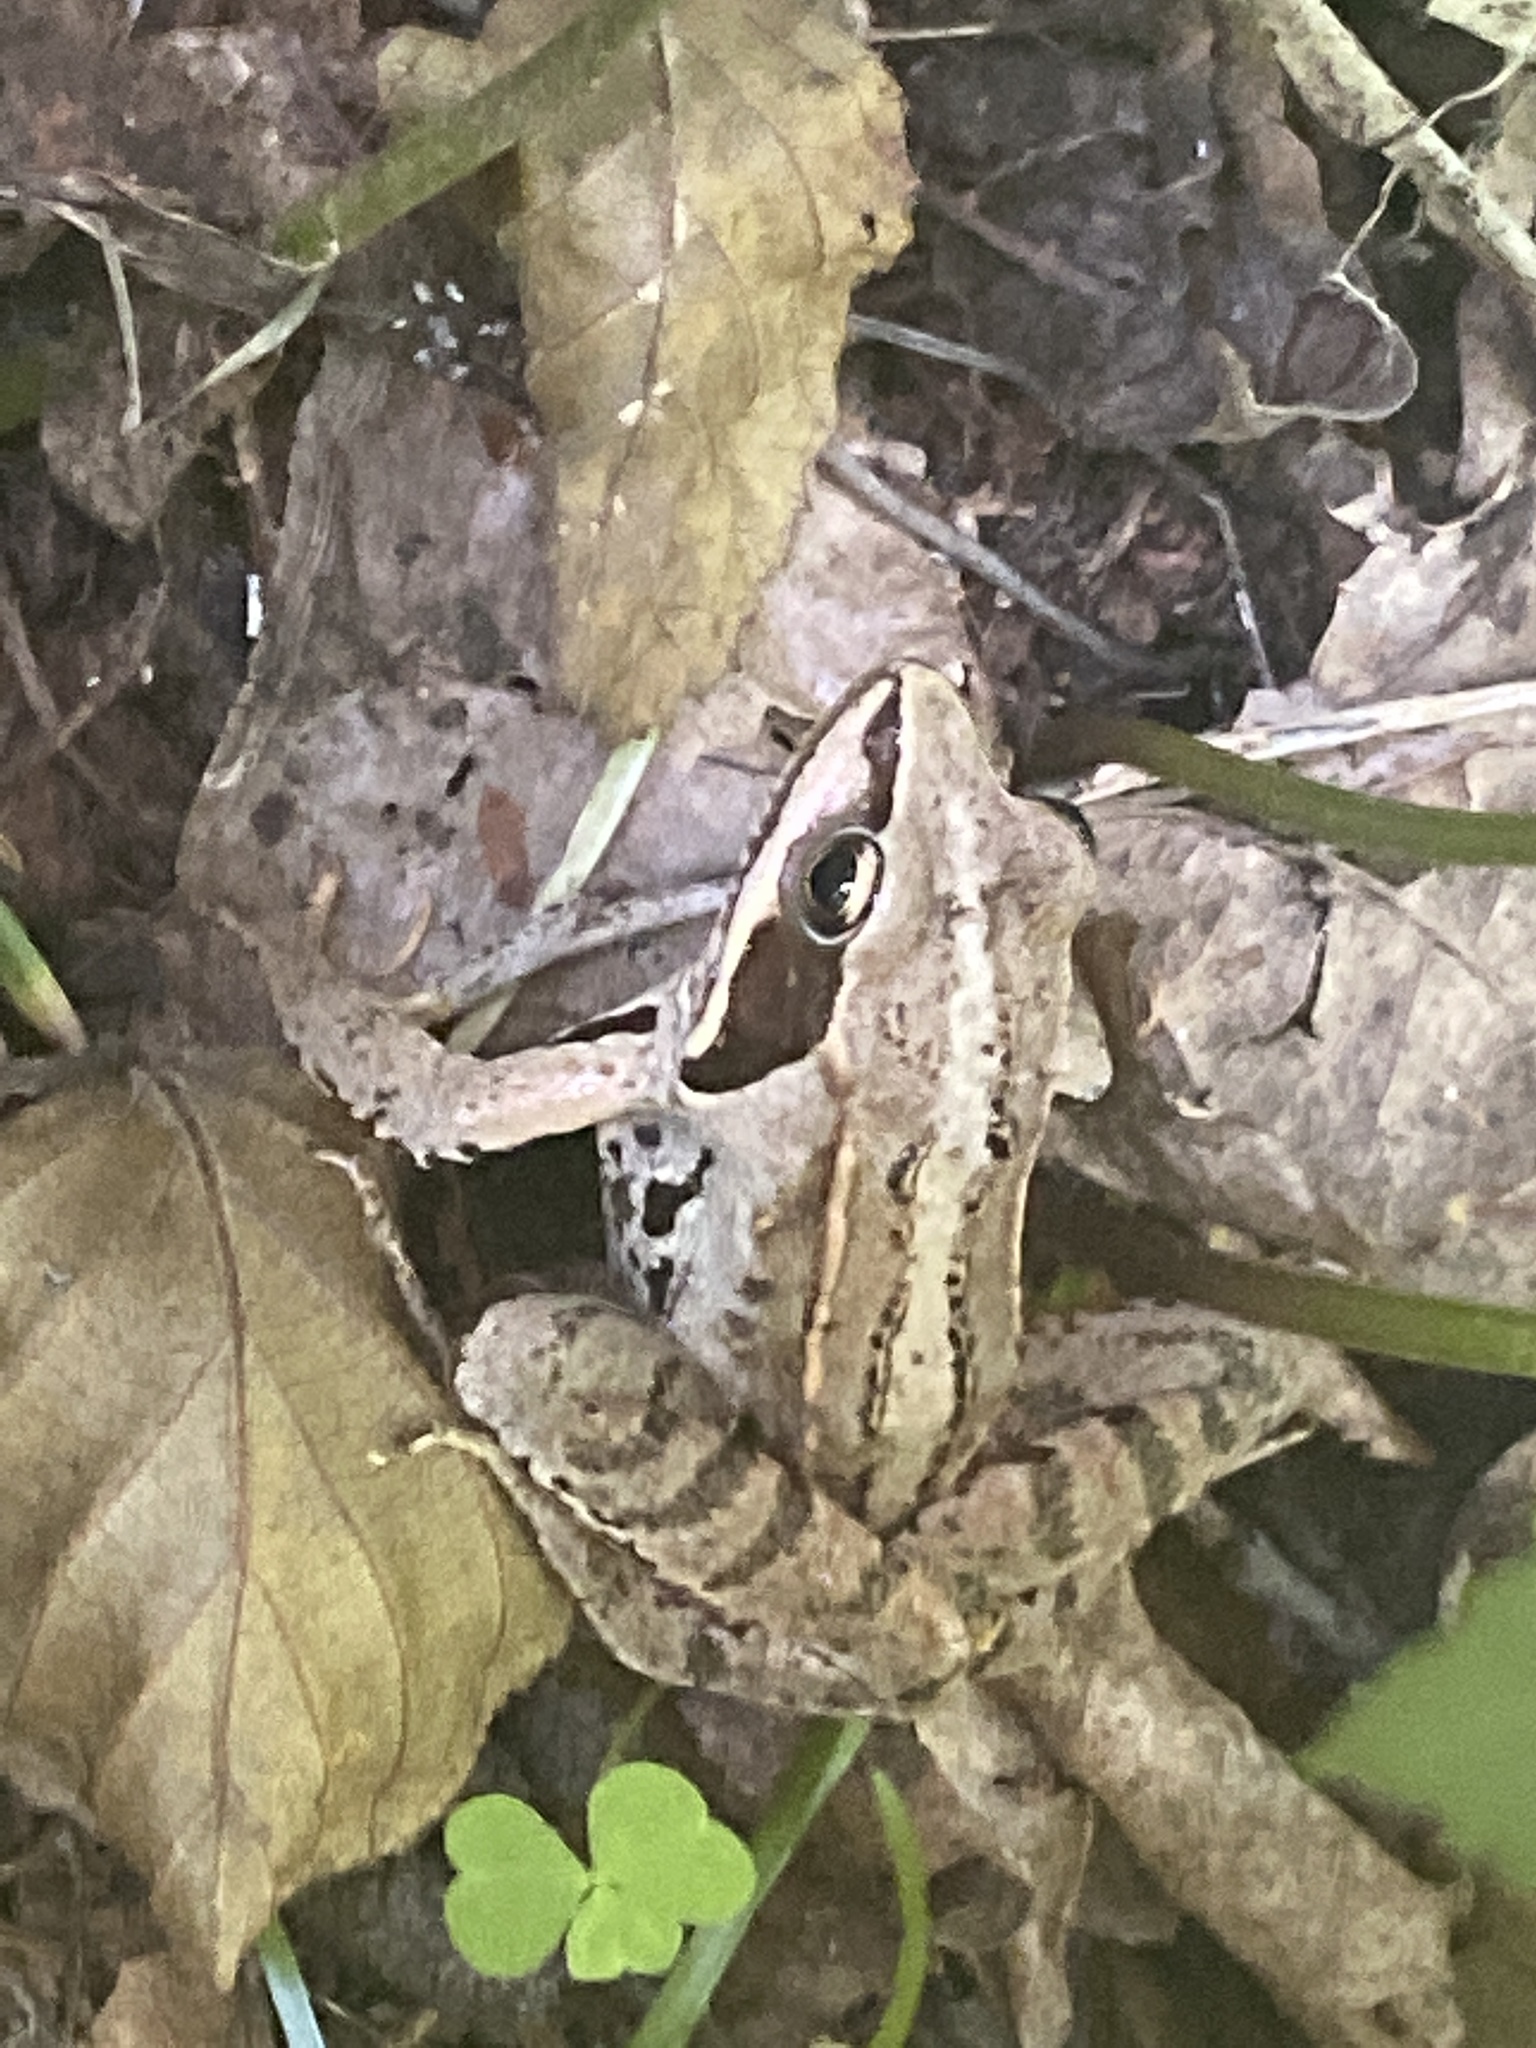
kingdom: Animalia
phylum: Chordata
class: Amphibia
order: Anura
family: Ranidae
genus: Rana
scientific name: Rana arvalis
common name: Moor frog
